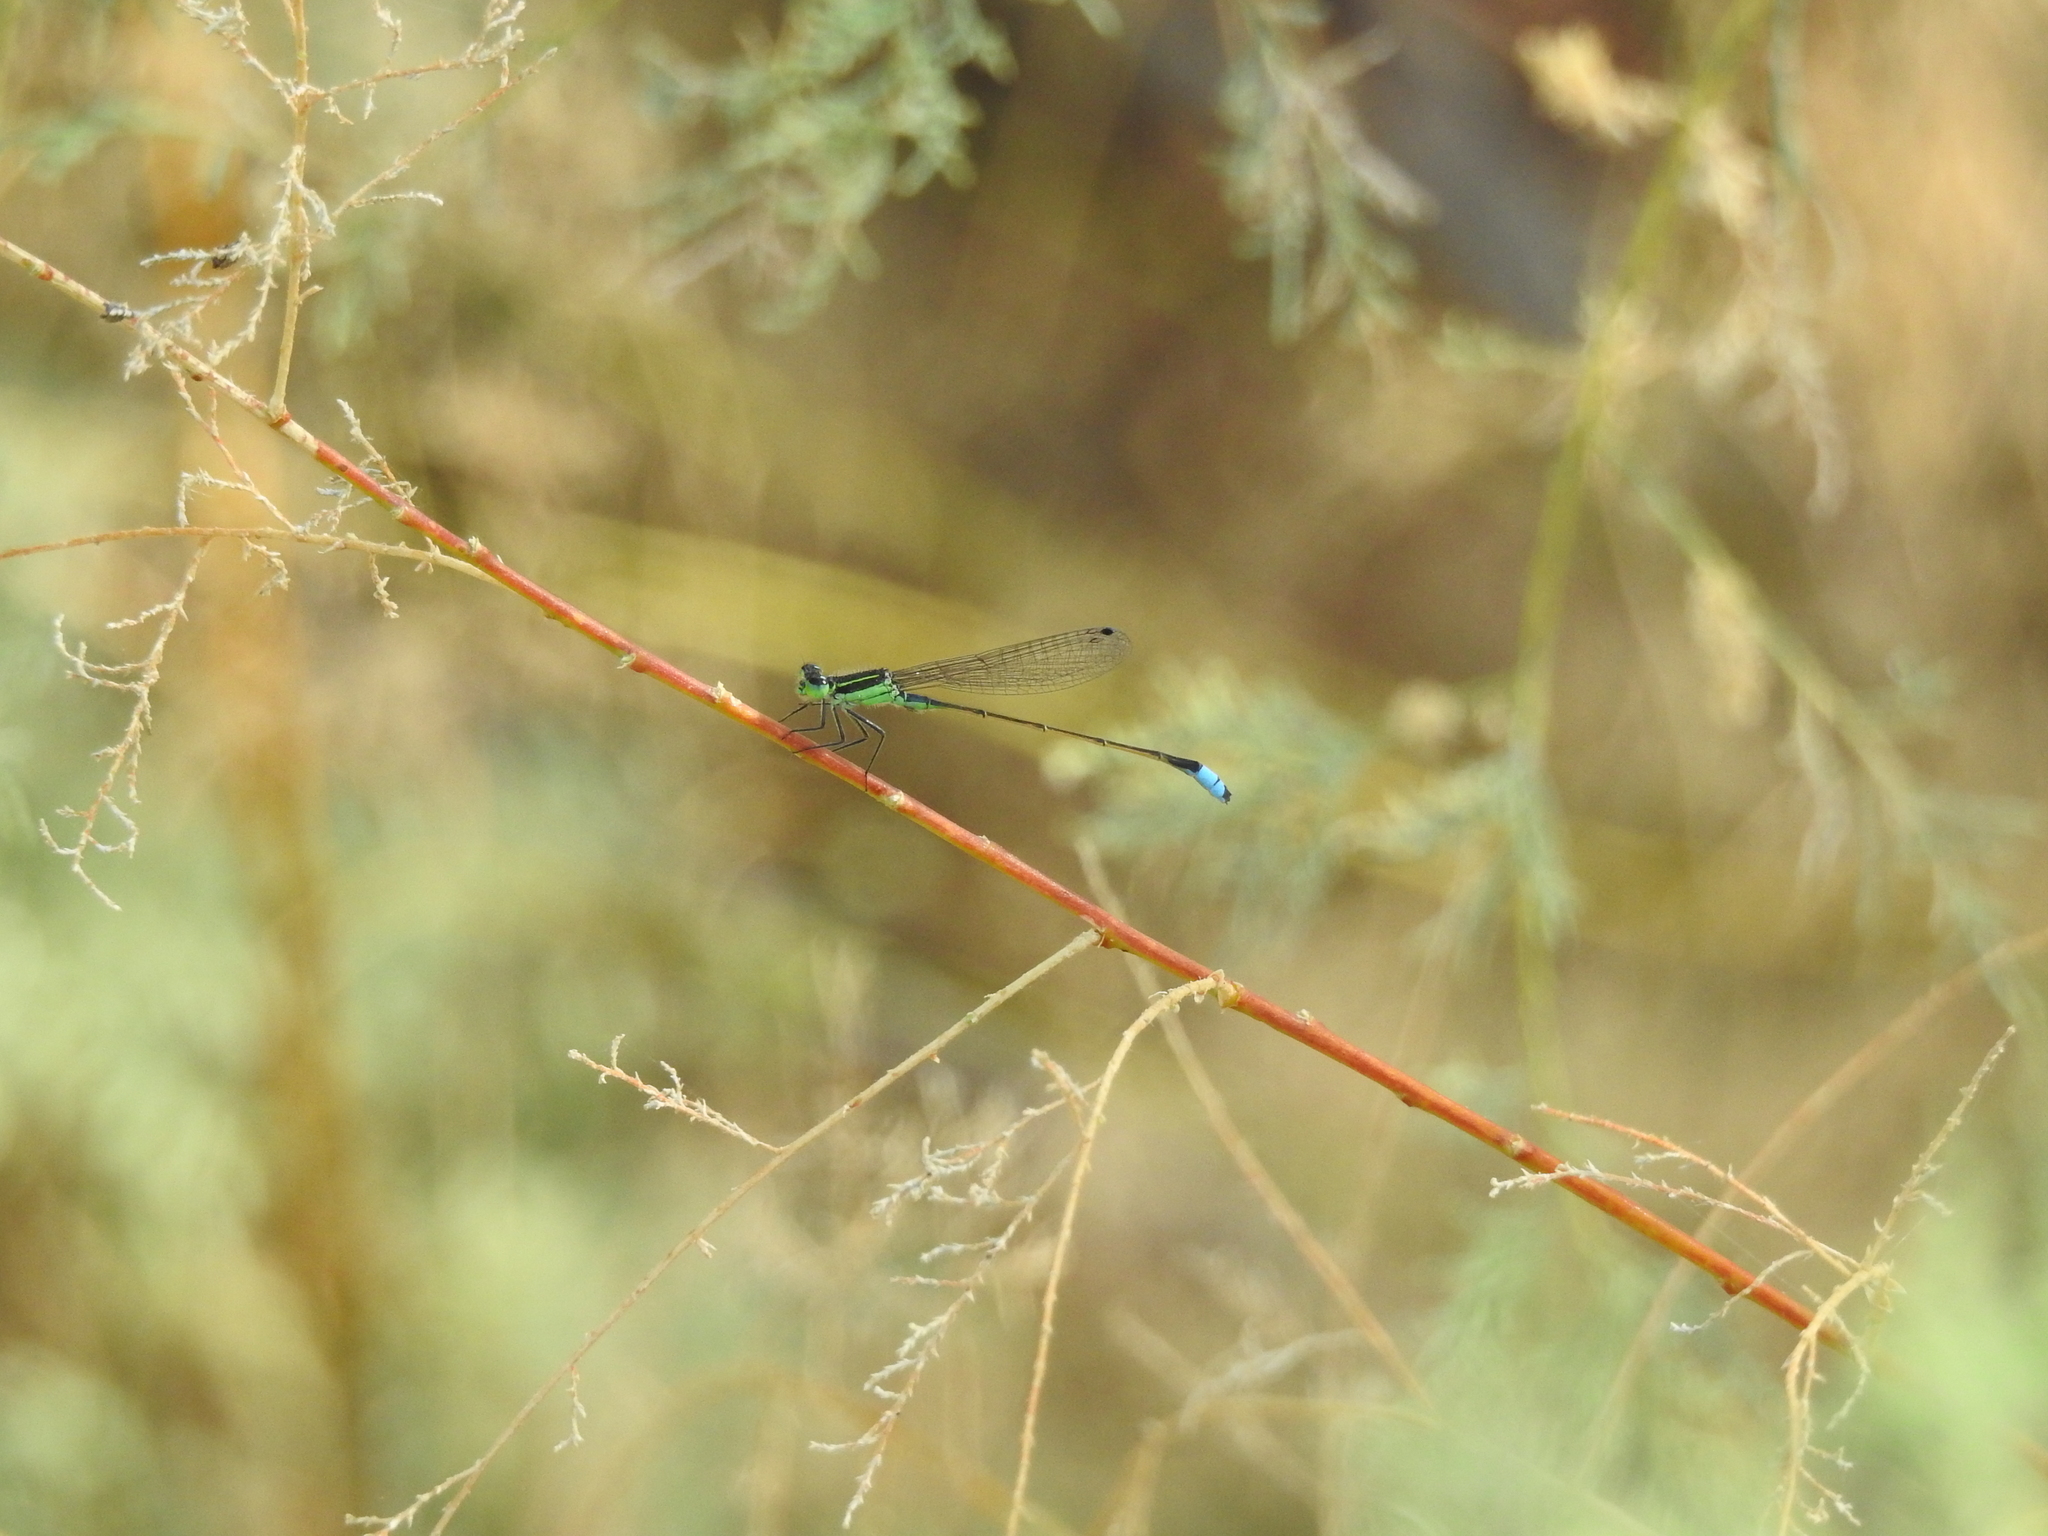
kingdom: Animalia
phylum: Arthropoda
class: Insecta
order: Odonata
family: Coenagrionidae
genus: Ischnura
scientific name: Ischnura ramburii
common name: Rambur's forktail
